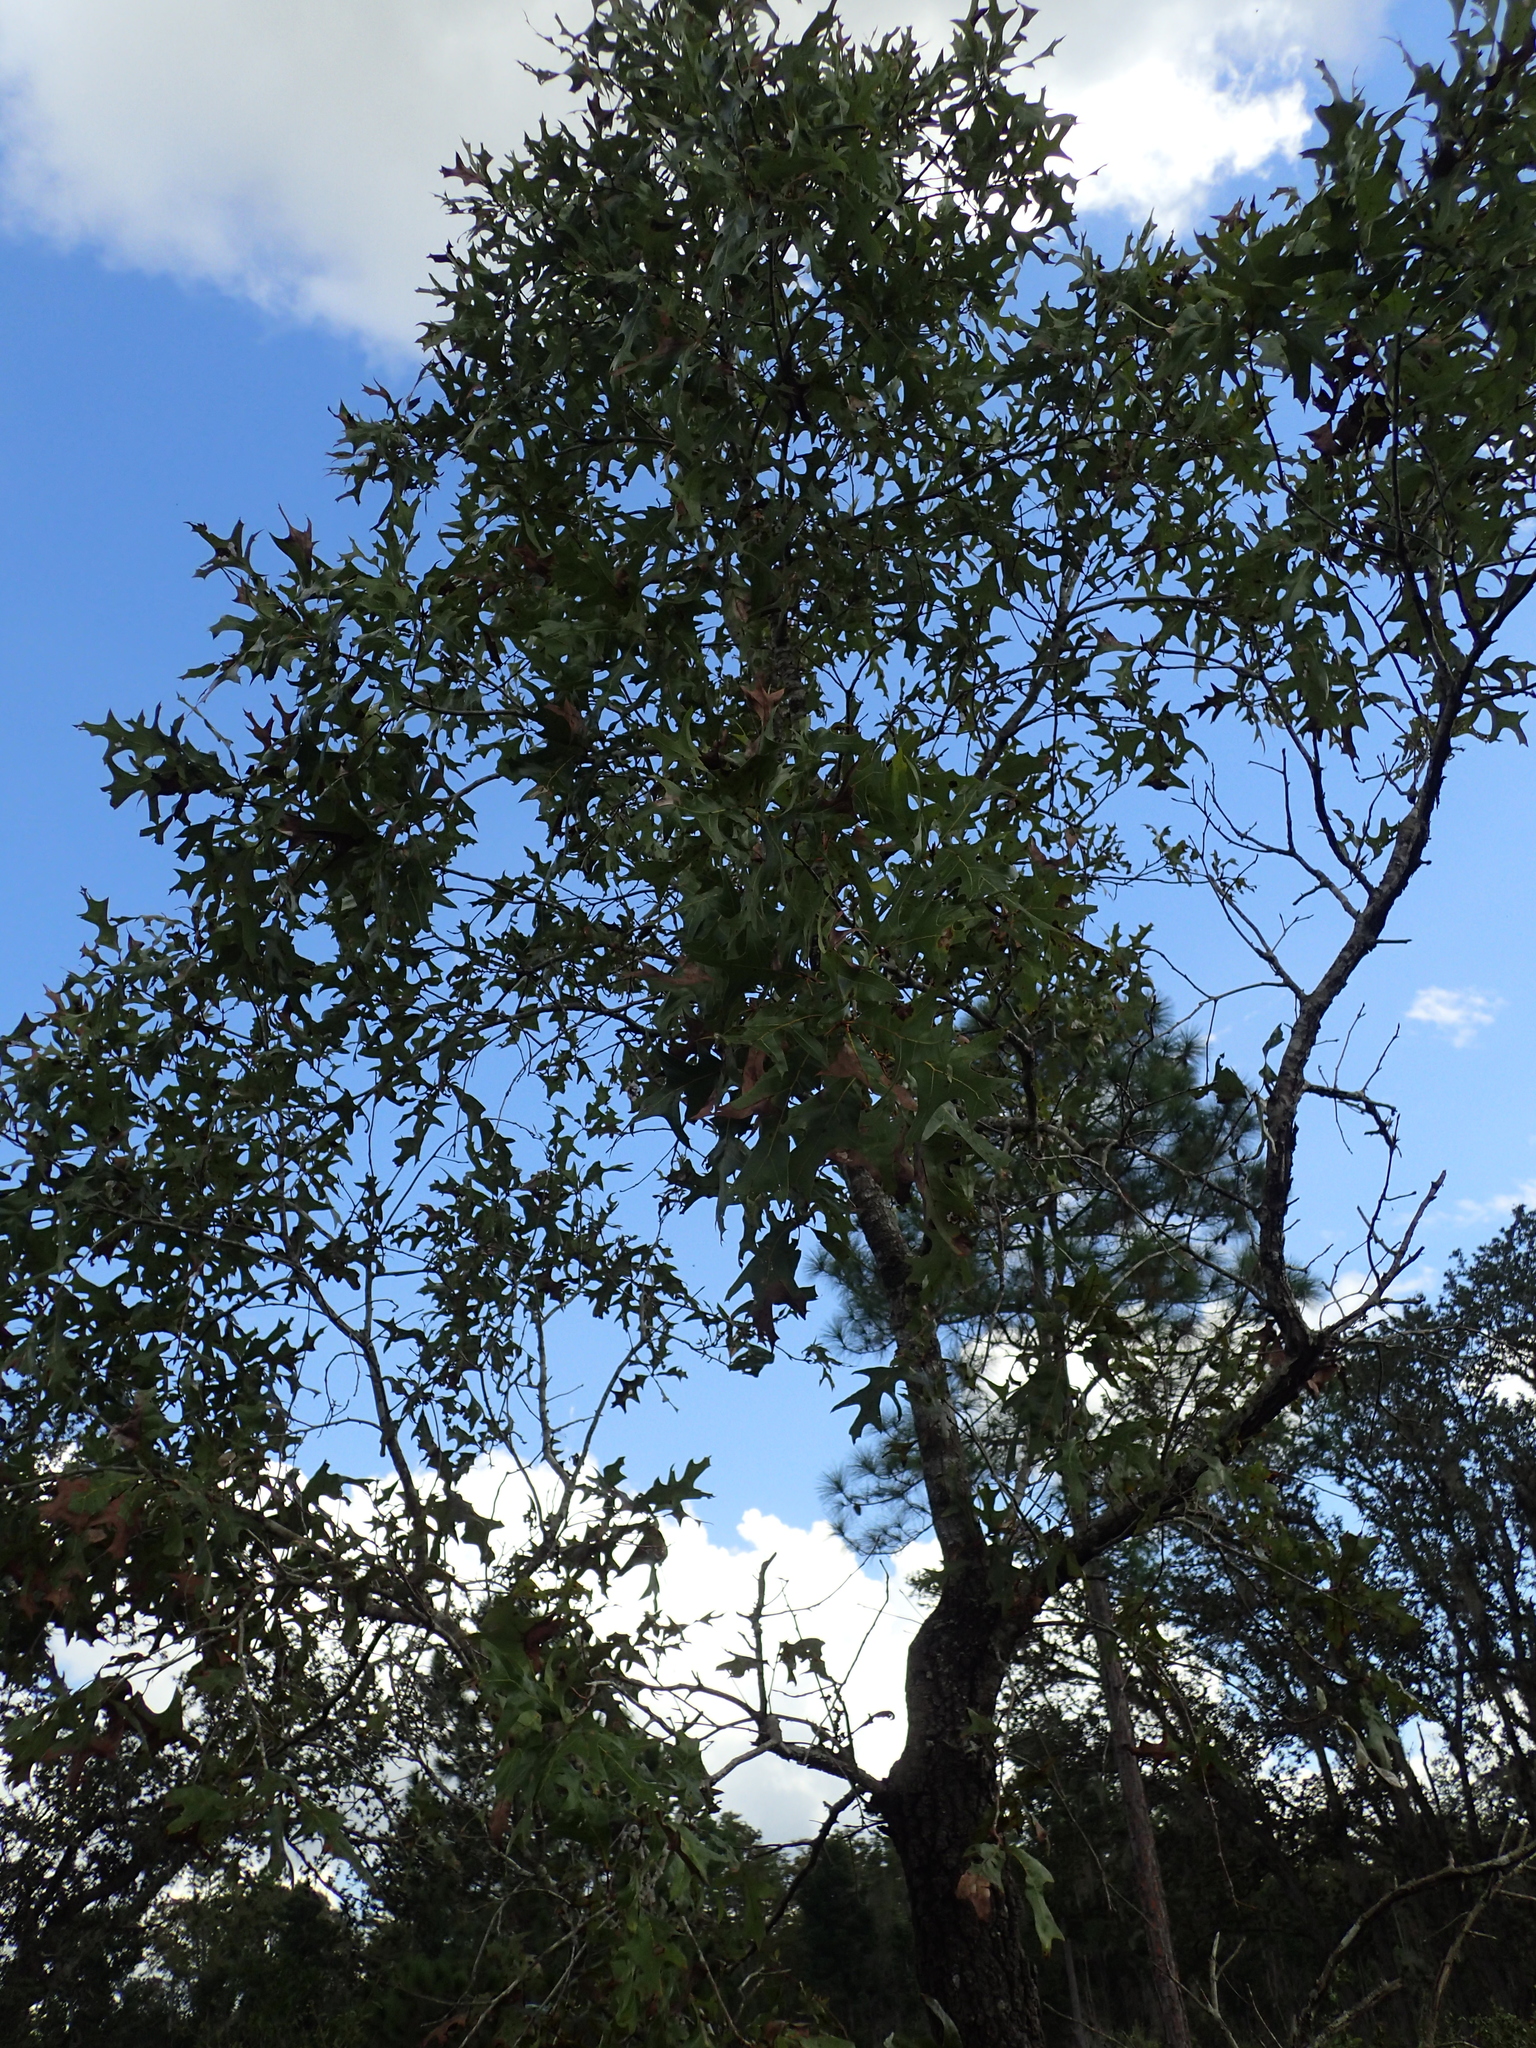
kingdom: Plantae
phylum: Tracheophyta
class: Magnoliopsida
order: Fagales
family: Fagaceae
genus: Quercus
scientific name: Quercus laevis
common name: Turkey oak
